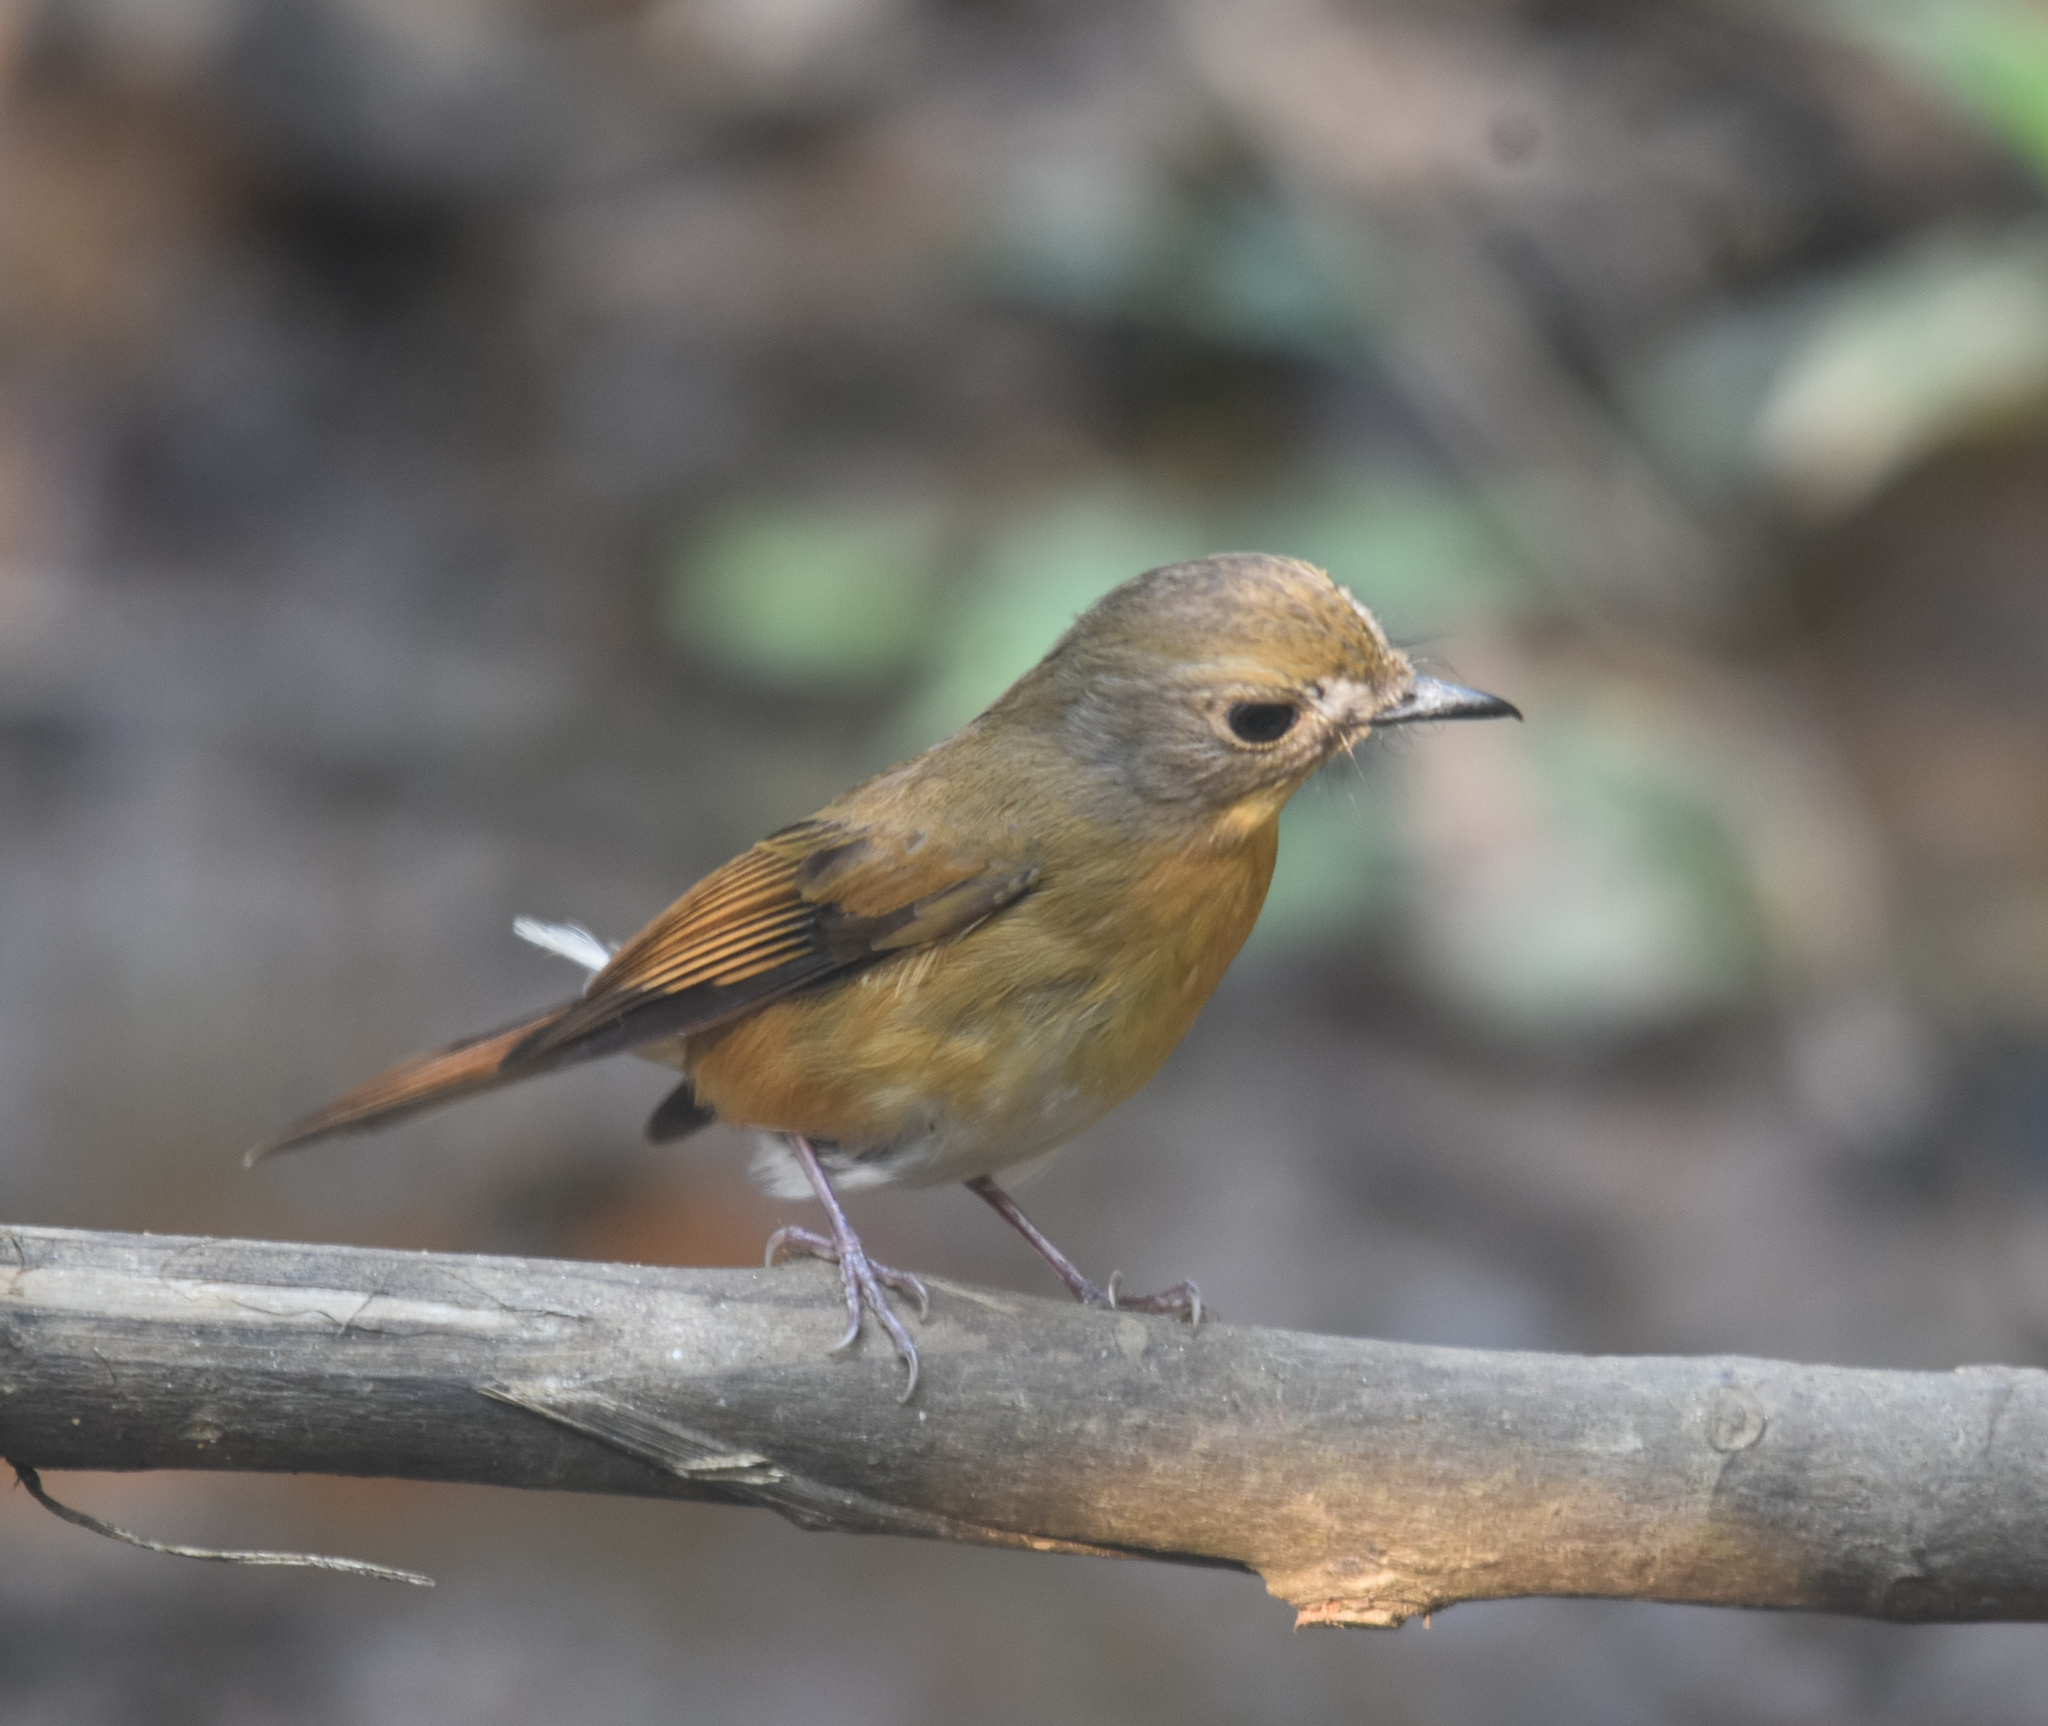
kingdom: Animalia
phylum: Chordata
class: Aves
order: Passeriformes
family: Muscicapidae
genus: Cyornis
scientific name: Cyornis poliogenys
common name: Pale-chinned blue flycatcher
